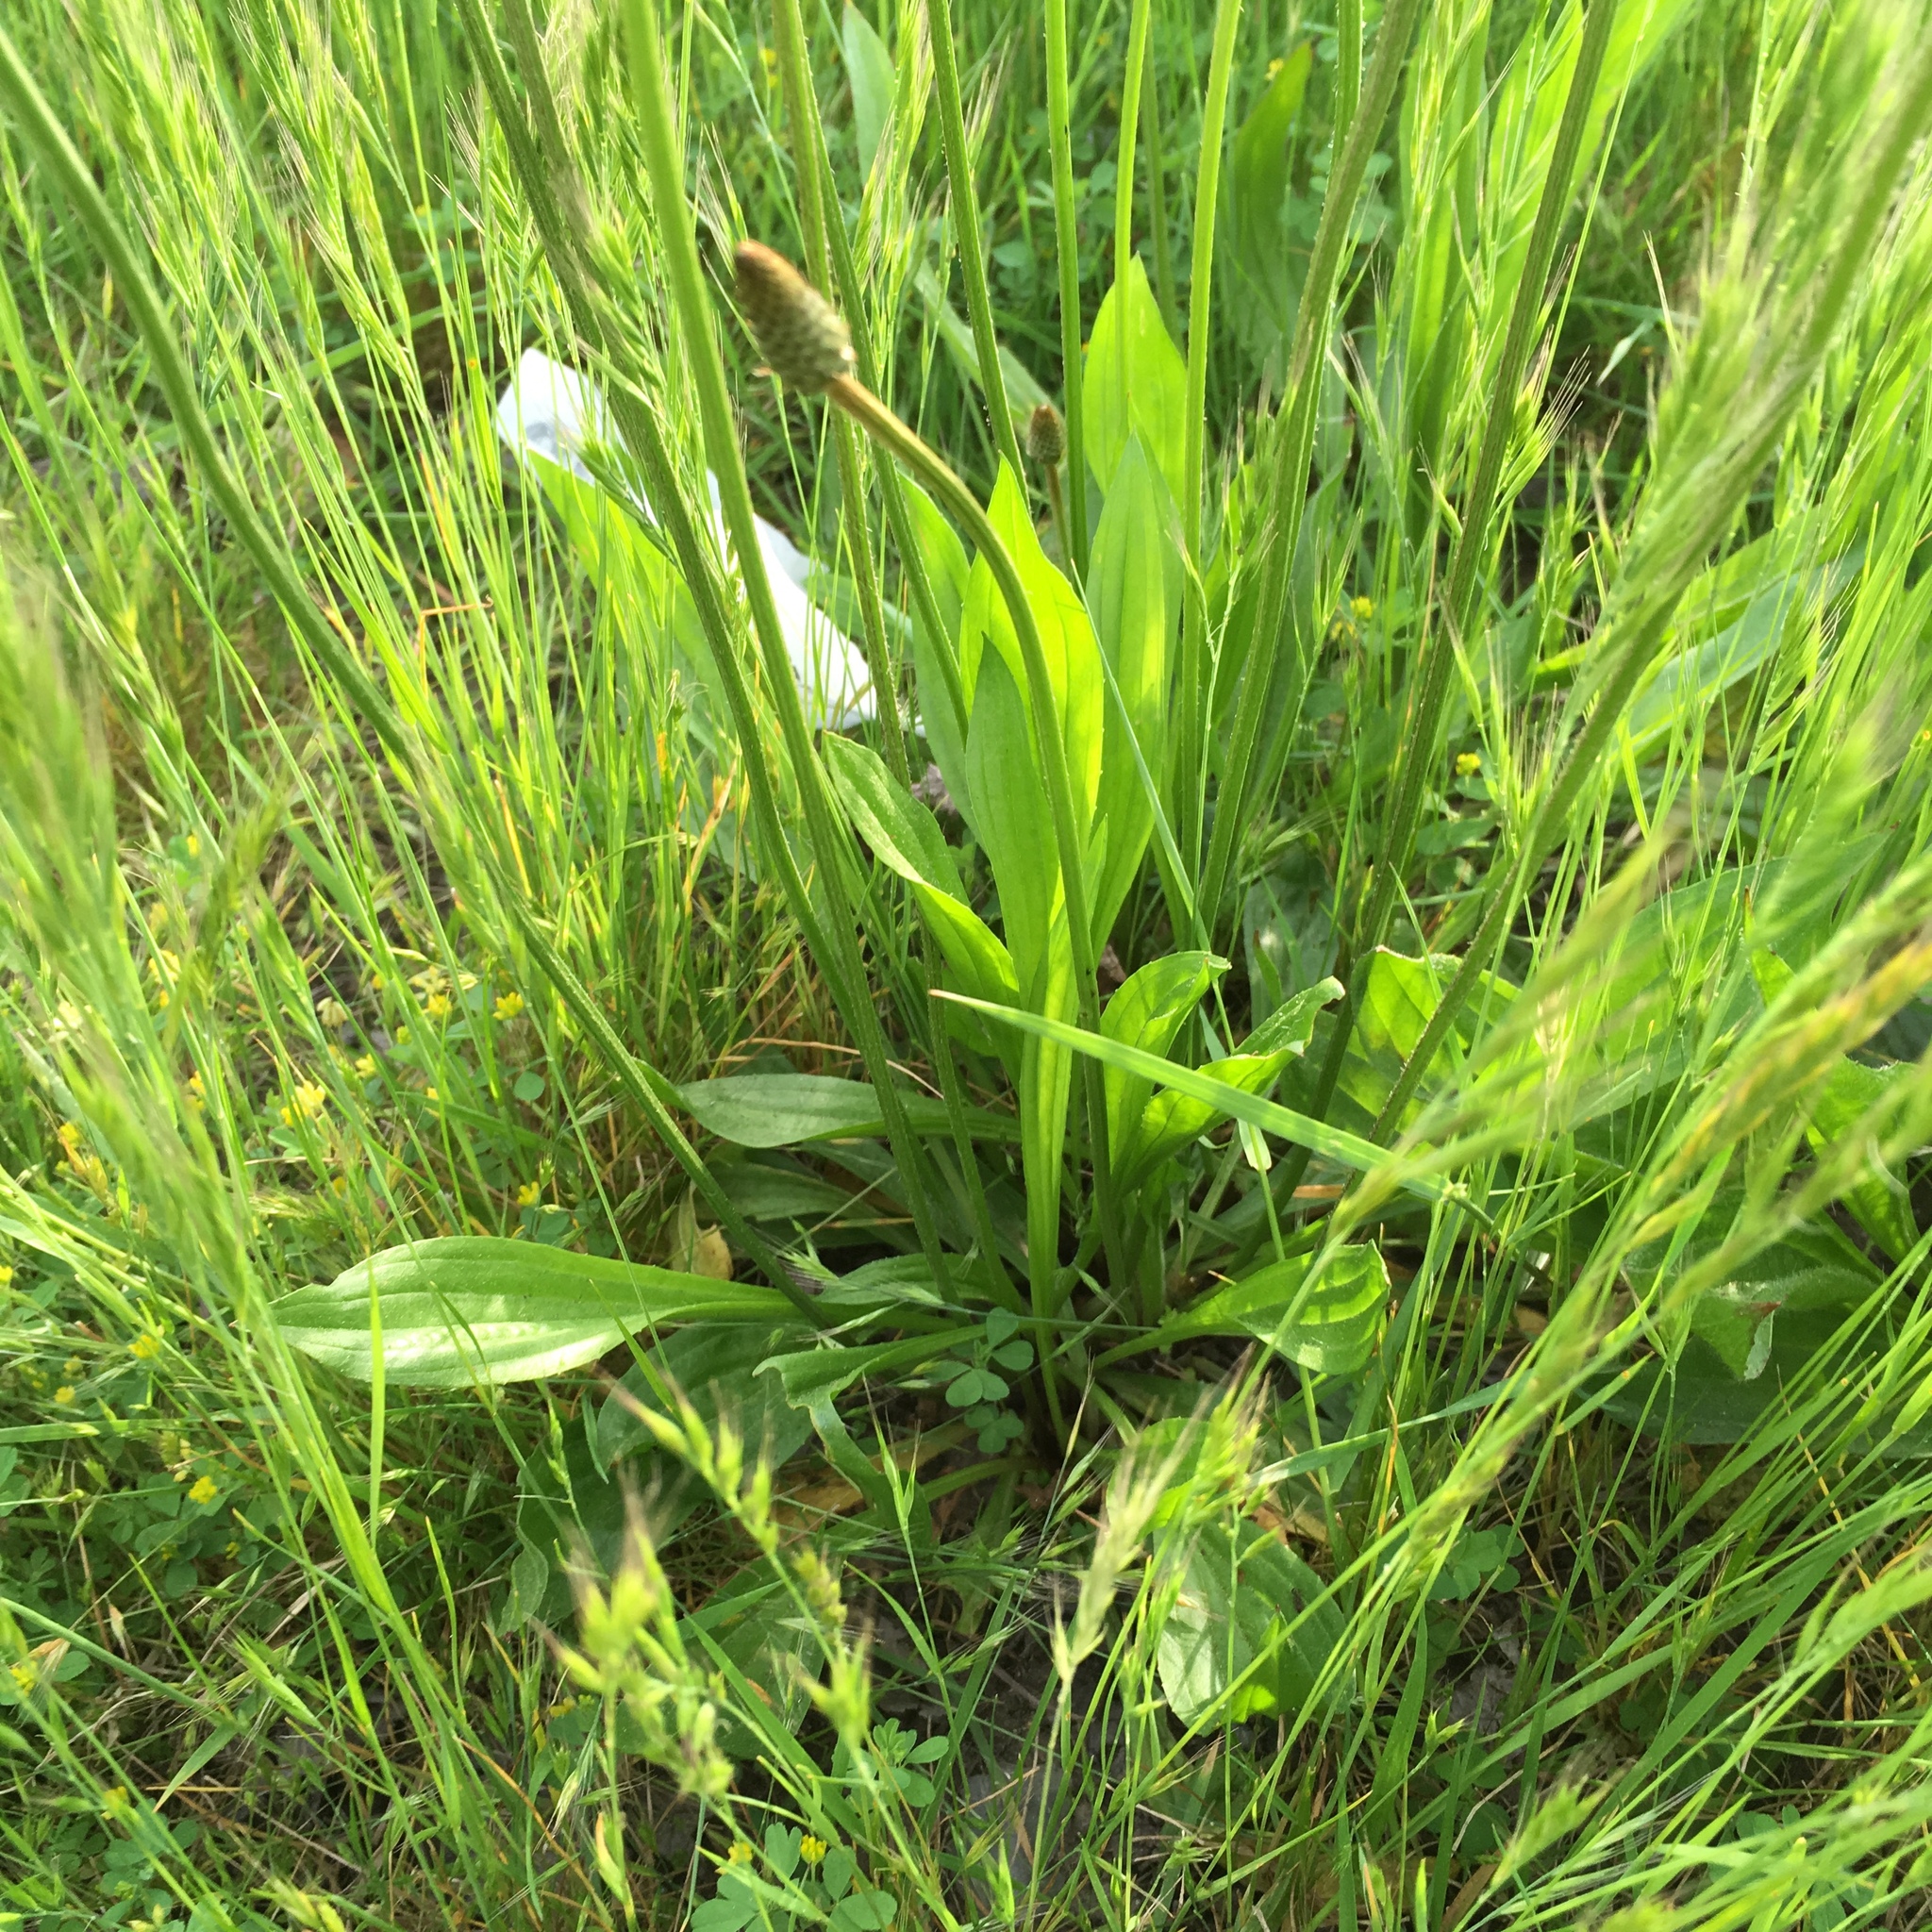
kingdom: Plantae
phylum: Tracheophyta
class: Magnoliopsida
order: Lamiales
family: Plantaginaceae
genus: Plantago
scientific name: Plantago lanceolata
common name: Ribwort plantain
